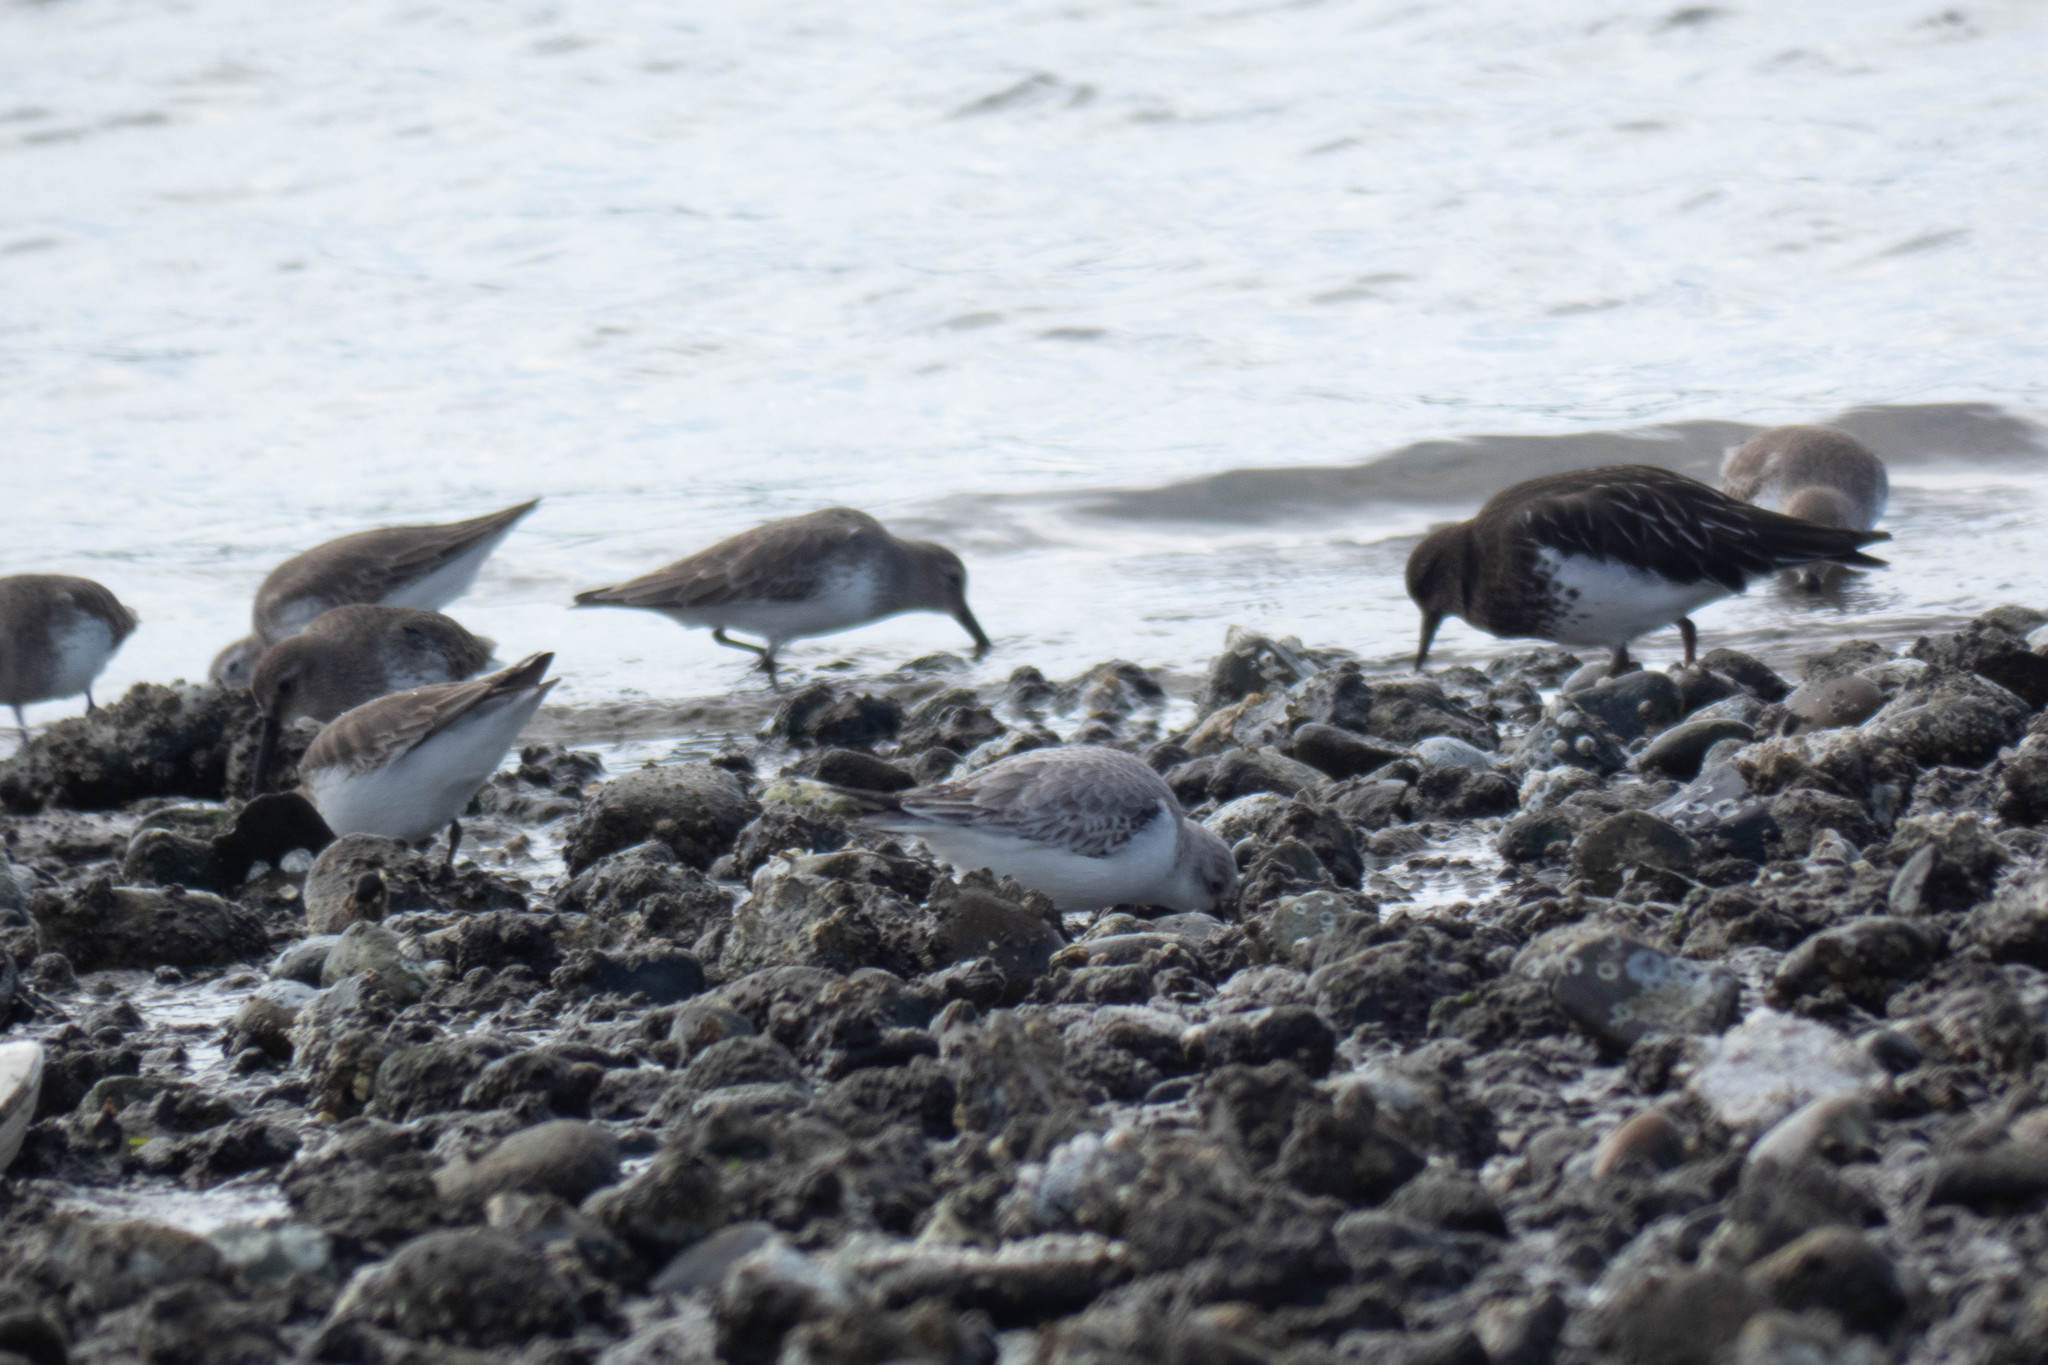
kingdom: Animalia
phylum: Chordata
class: Aves
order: Charadriiformes
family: Scolopacidae
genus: Calidris
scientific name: Calidris alba
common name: Sanderling
